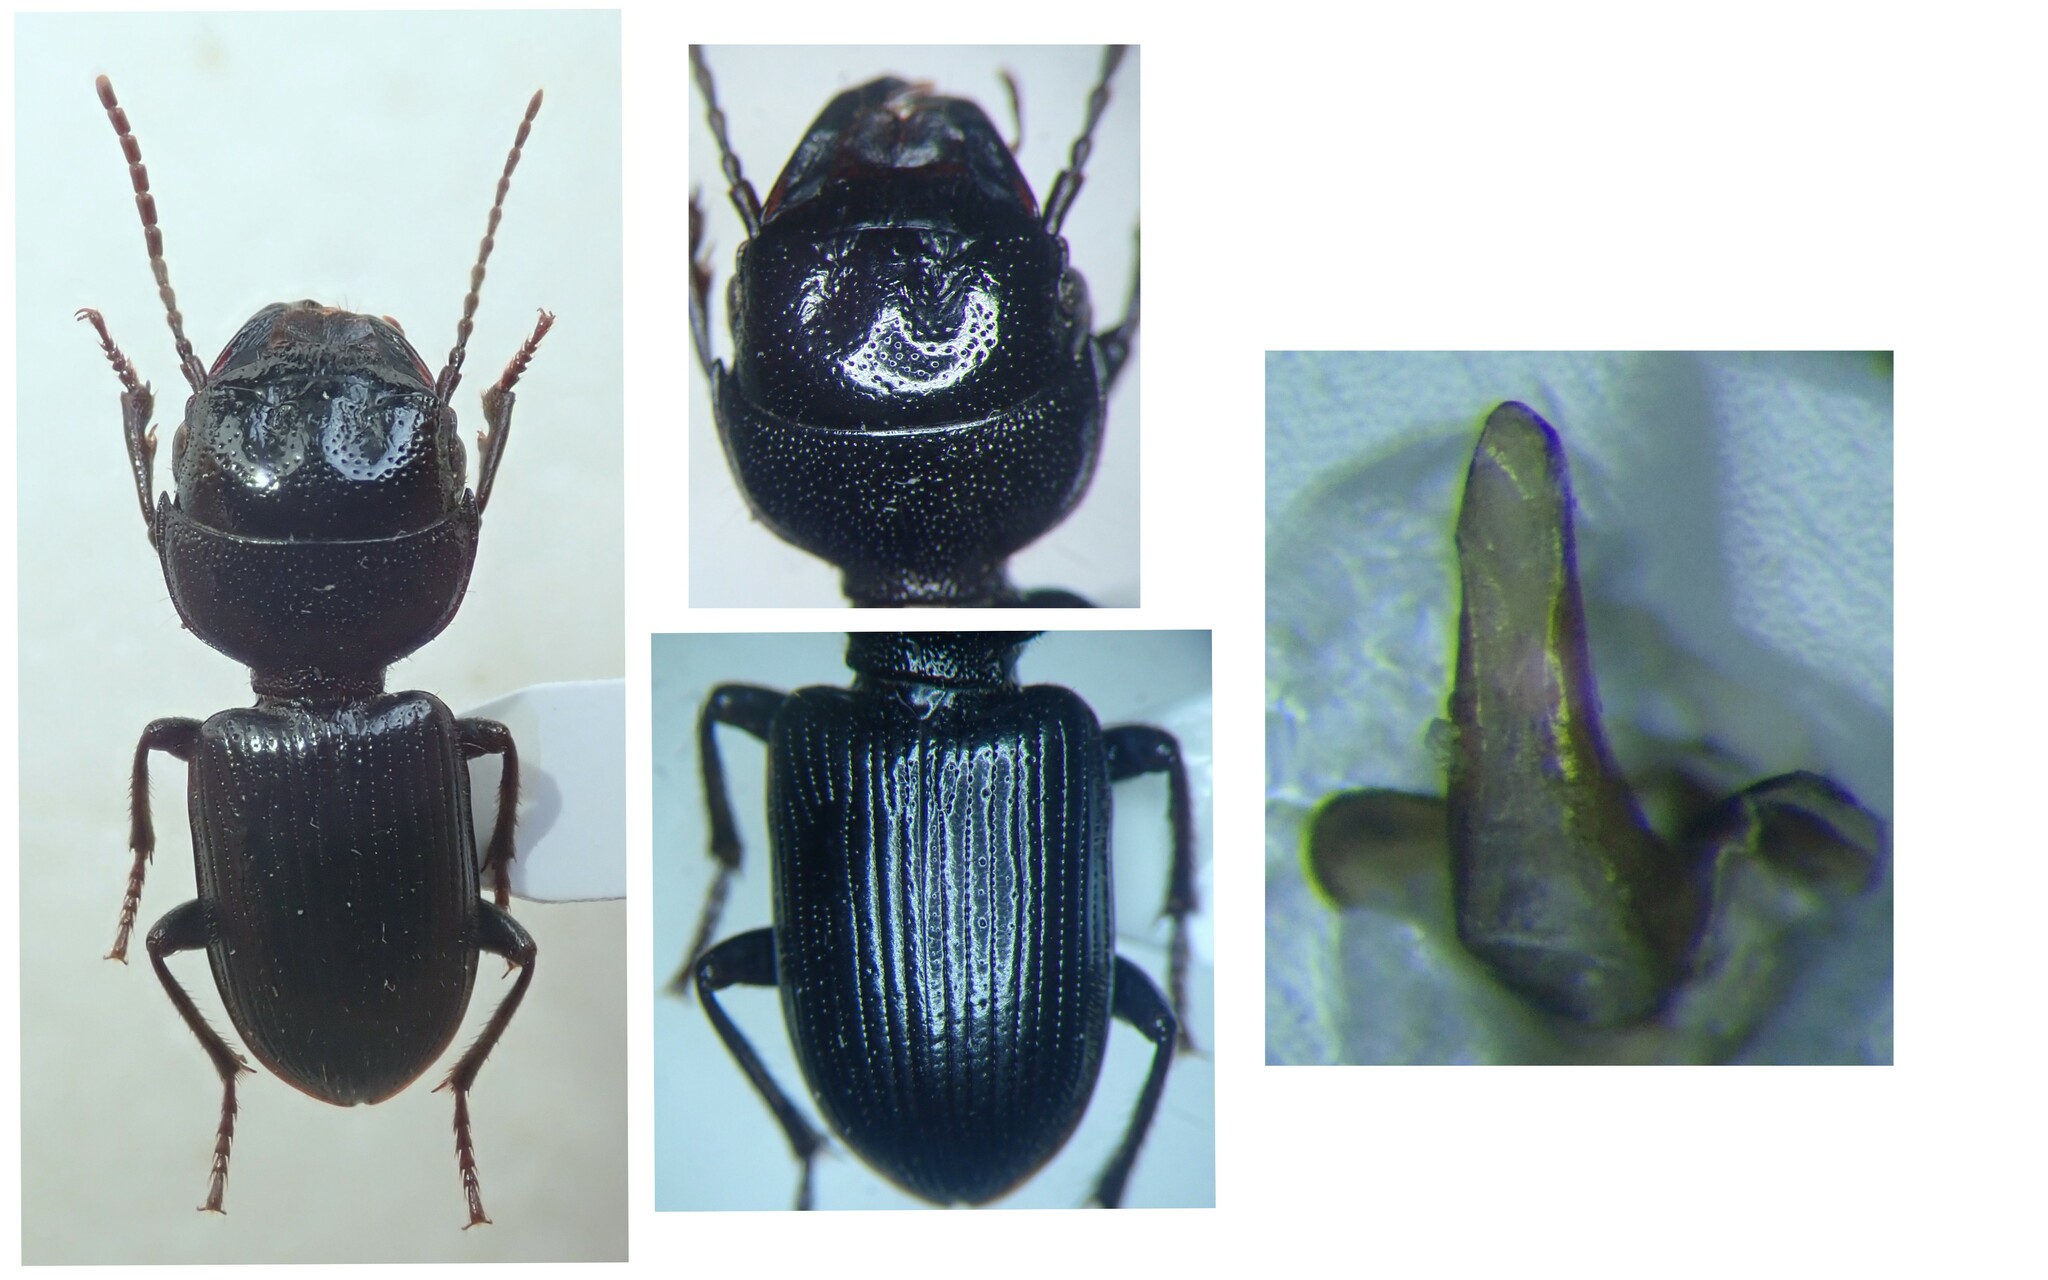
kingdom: Animalia
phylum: Arthropoda
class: Insecta
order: Coleoptera
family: Carabidae
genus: Dixus
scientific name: Dixus clypeatus
